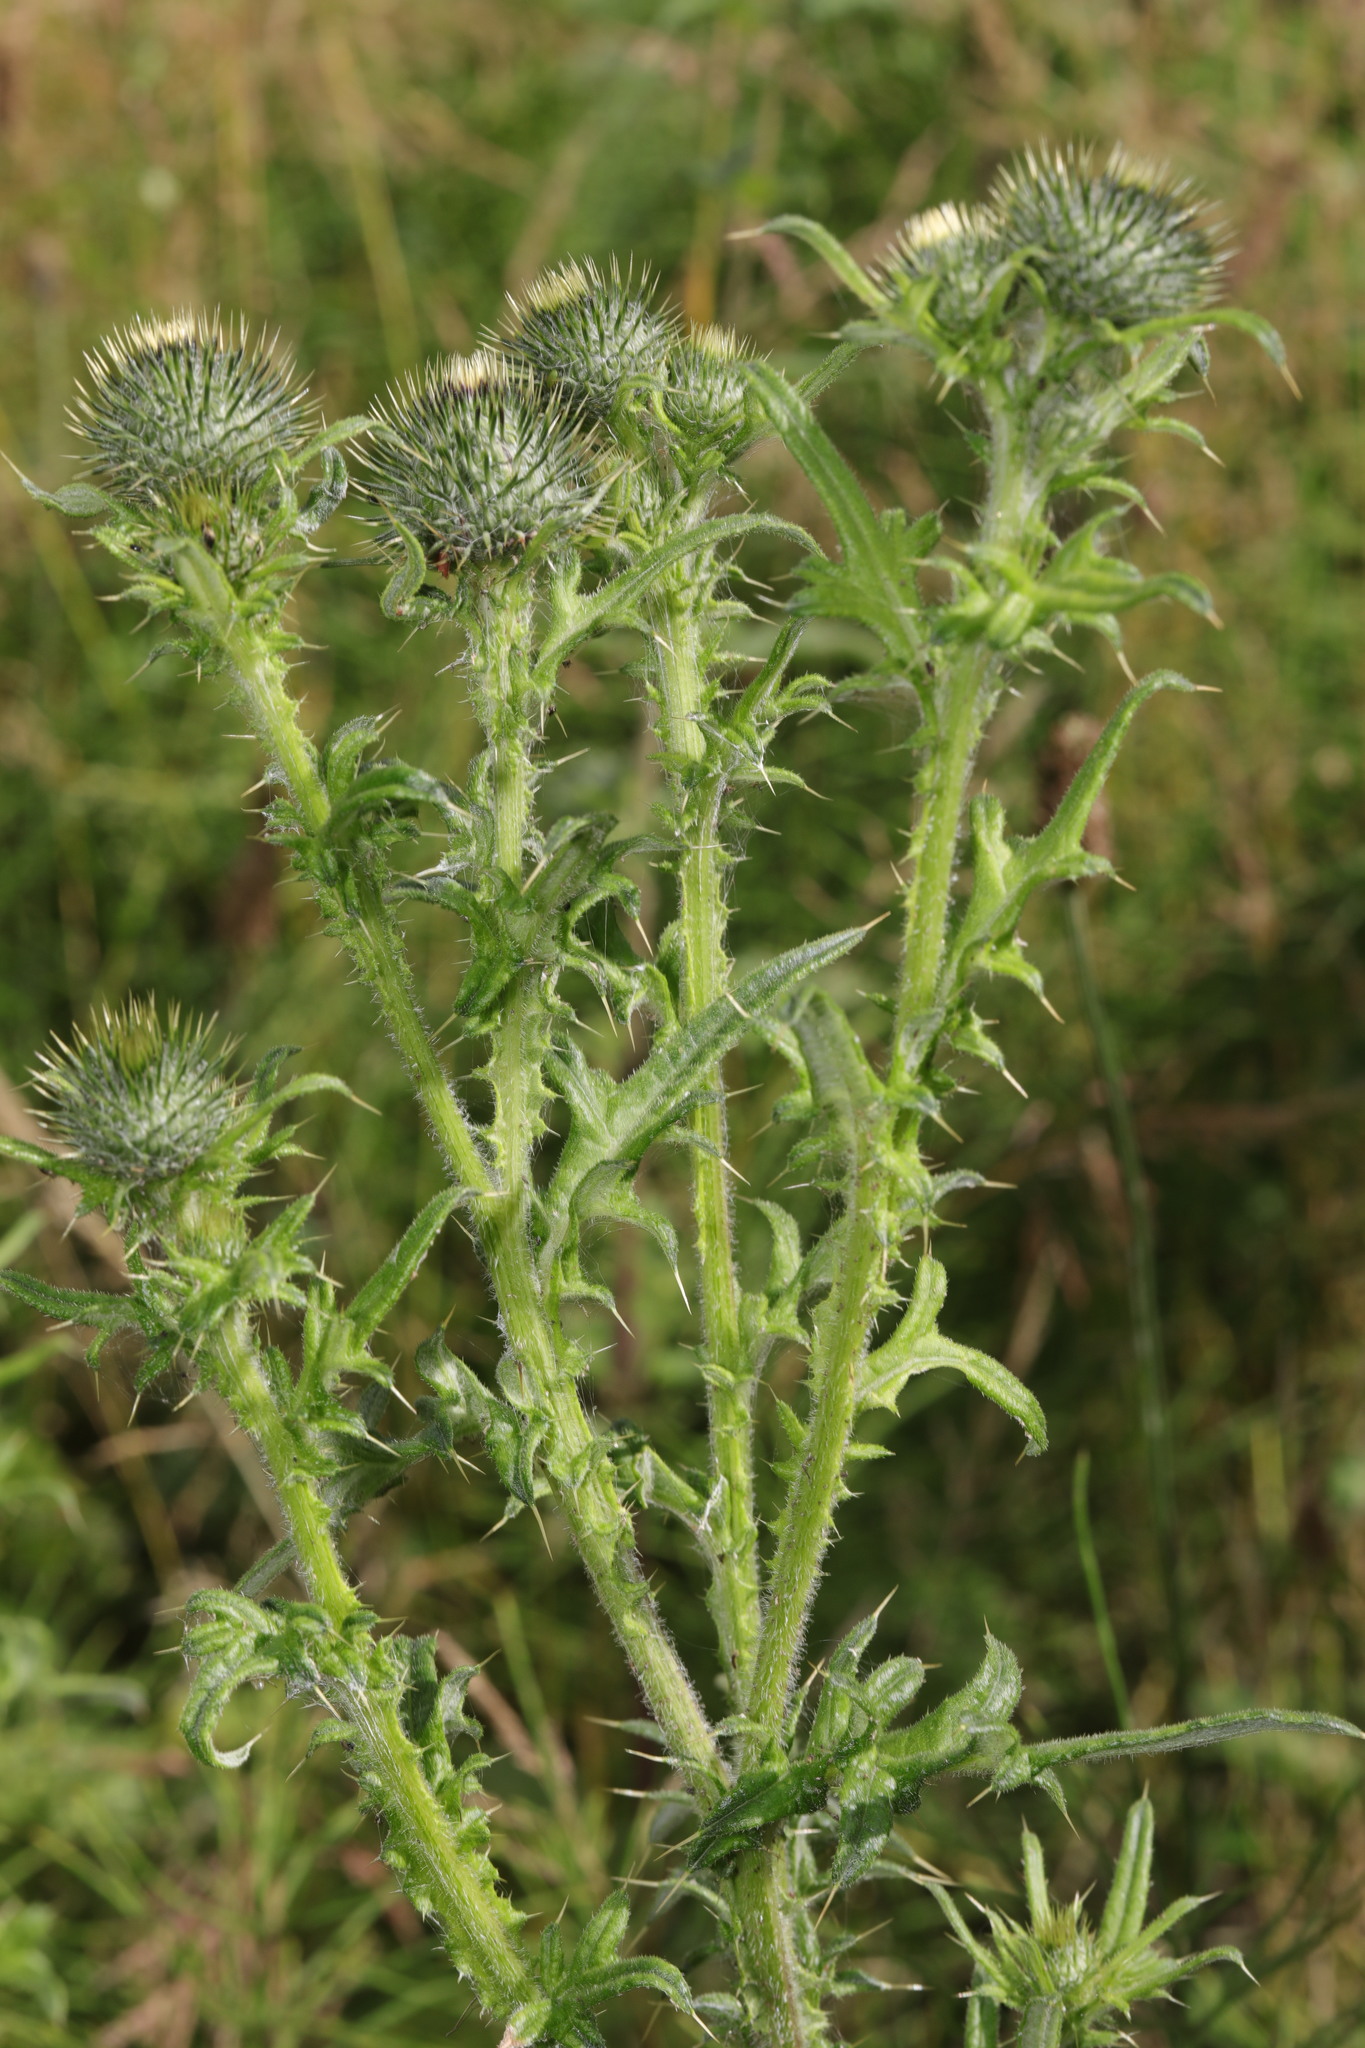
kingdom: Plantae
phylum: Tracheophyta
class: Magnoliopsida
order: Asterales
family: Asteraceae
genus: Cirsium
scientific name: Cirsium vulgare
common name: Bull thistle
